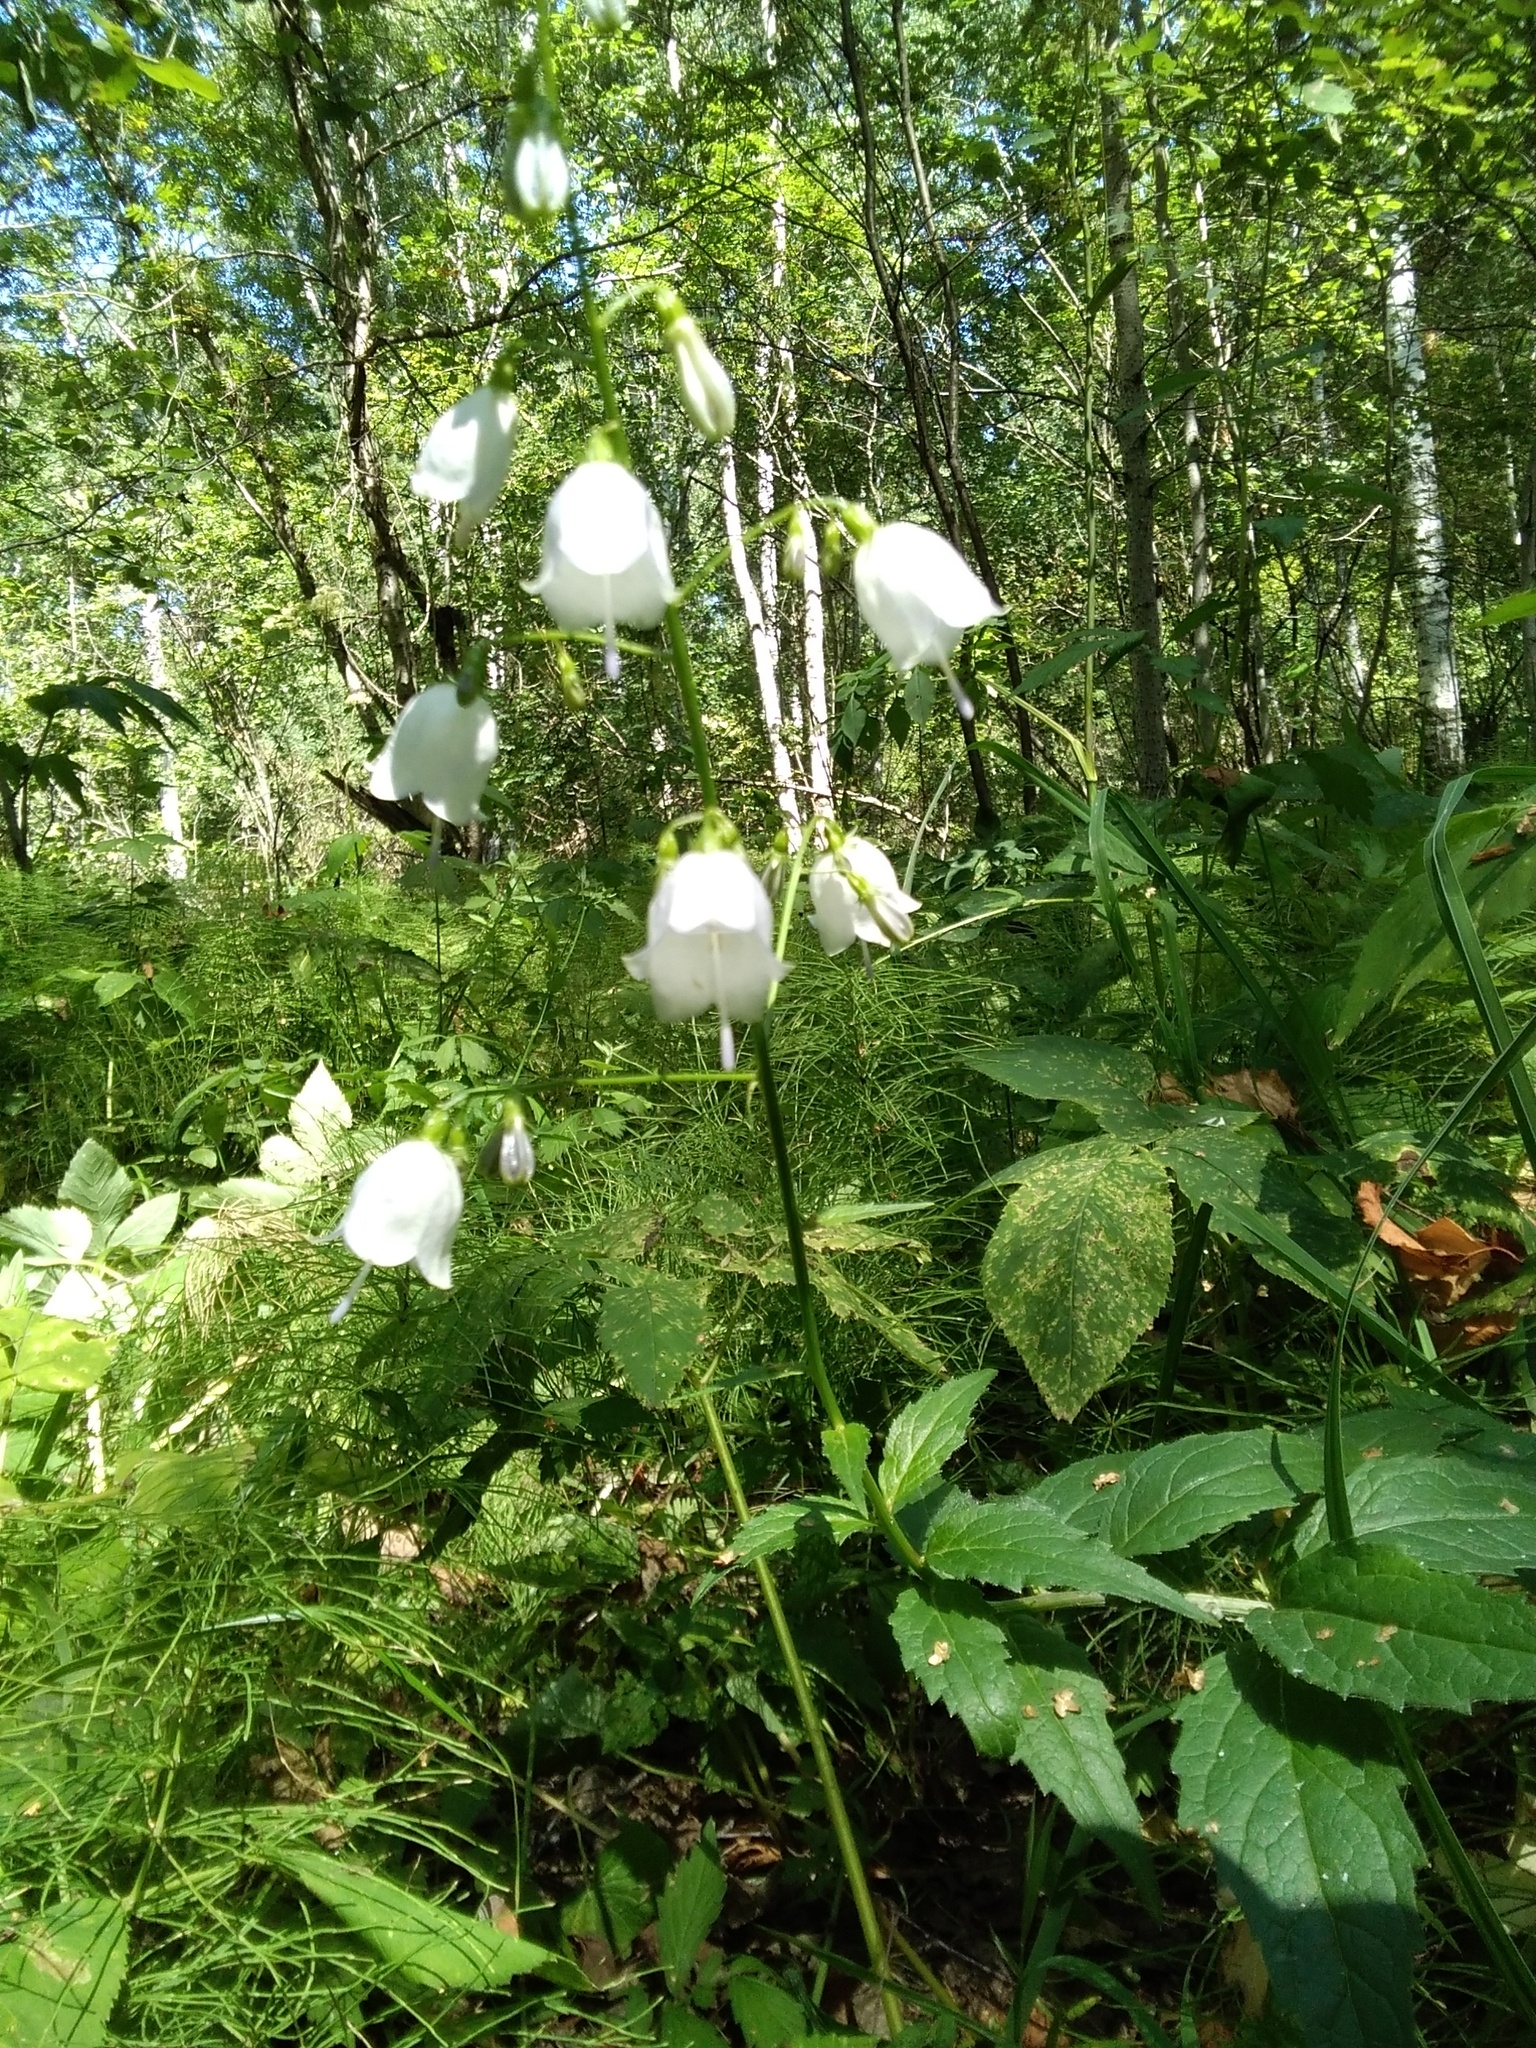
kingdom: Plantae
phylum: Tracheophyta
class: Magnoliopsida
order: Asterales
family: Campanulaceae
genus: Adenophora
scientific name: Adenophora liliifolia
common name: Lilyleaf ladybells
